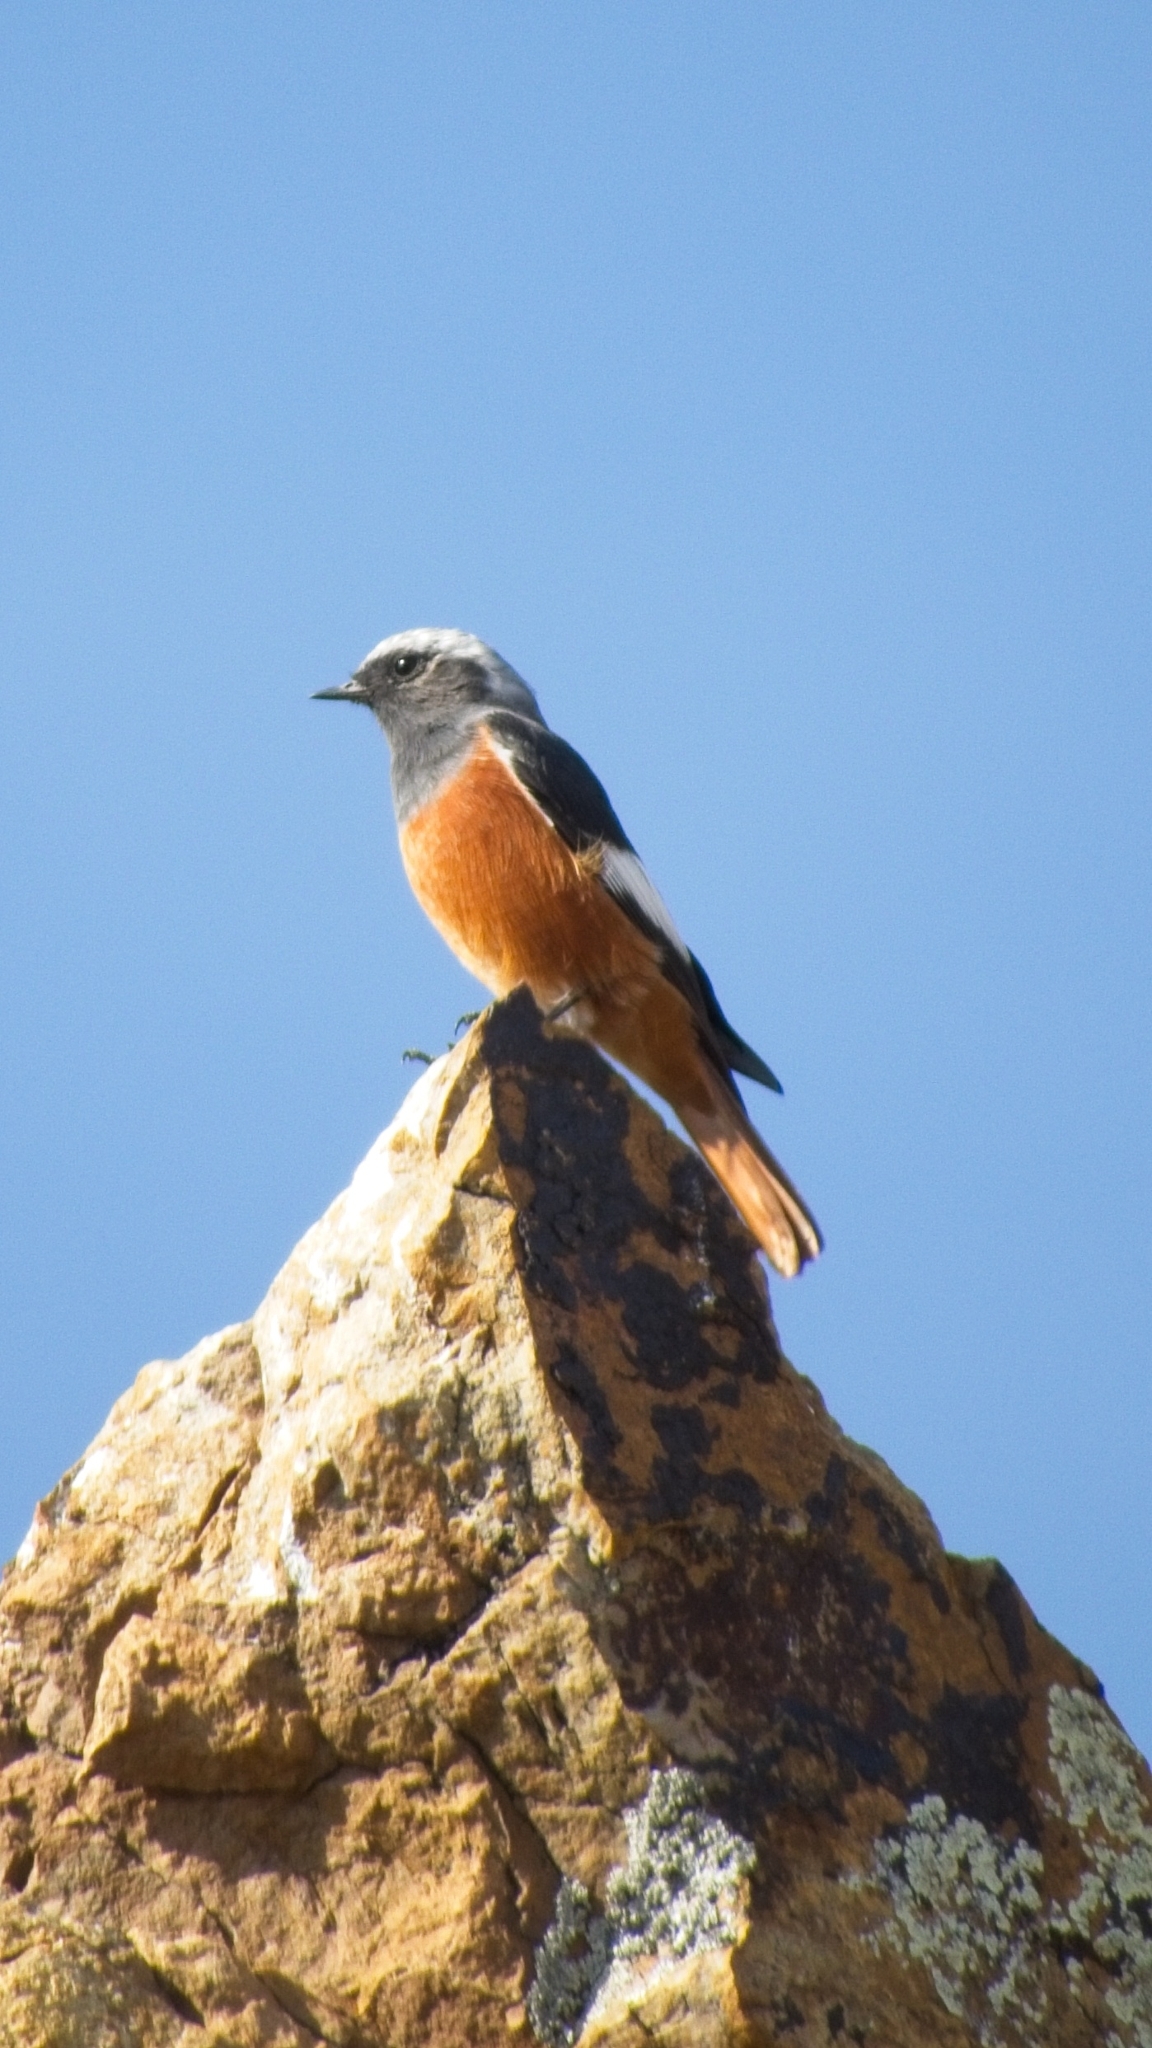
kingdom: Animalia
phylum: Chordata
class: Aves
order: Passeriformes
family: Muscicapidae
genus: Phoenicurus
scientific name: Phoenicurus erythrogastrus
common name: Güldenstädt's redstart
